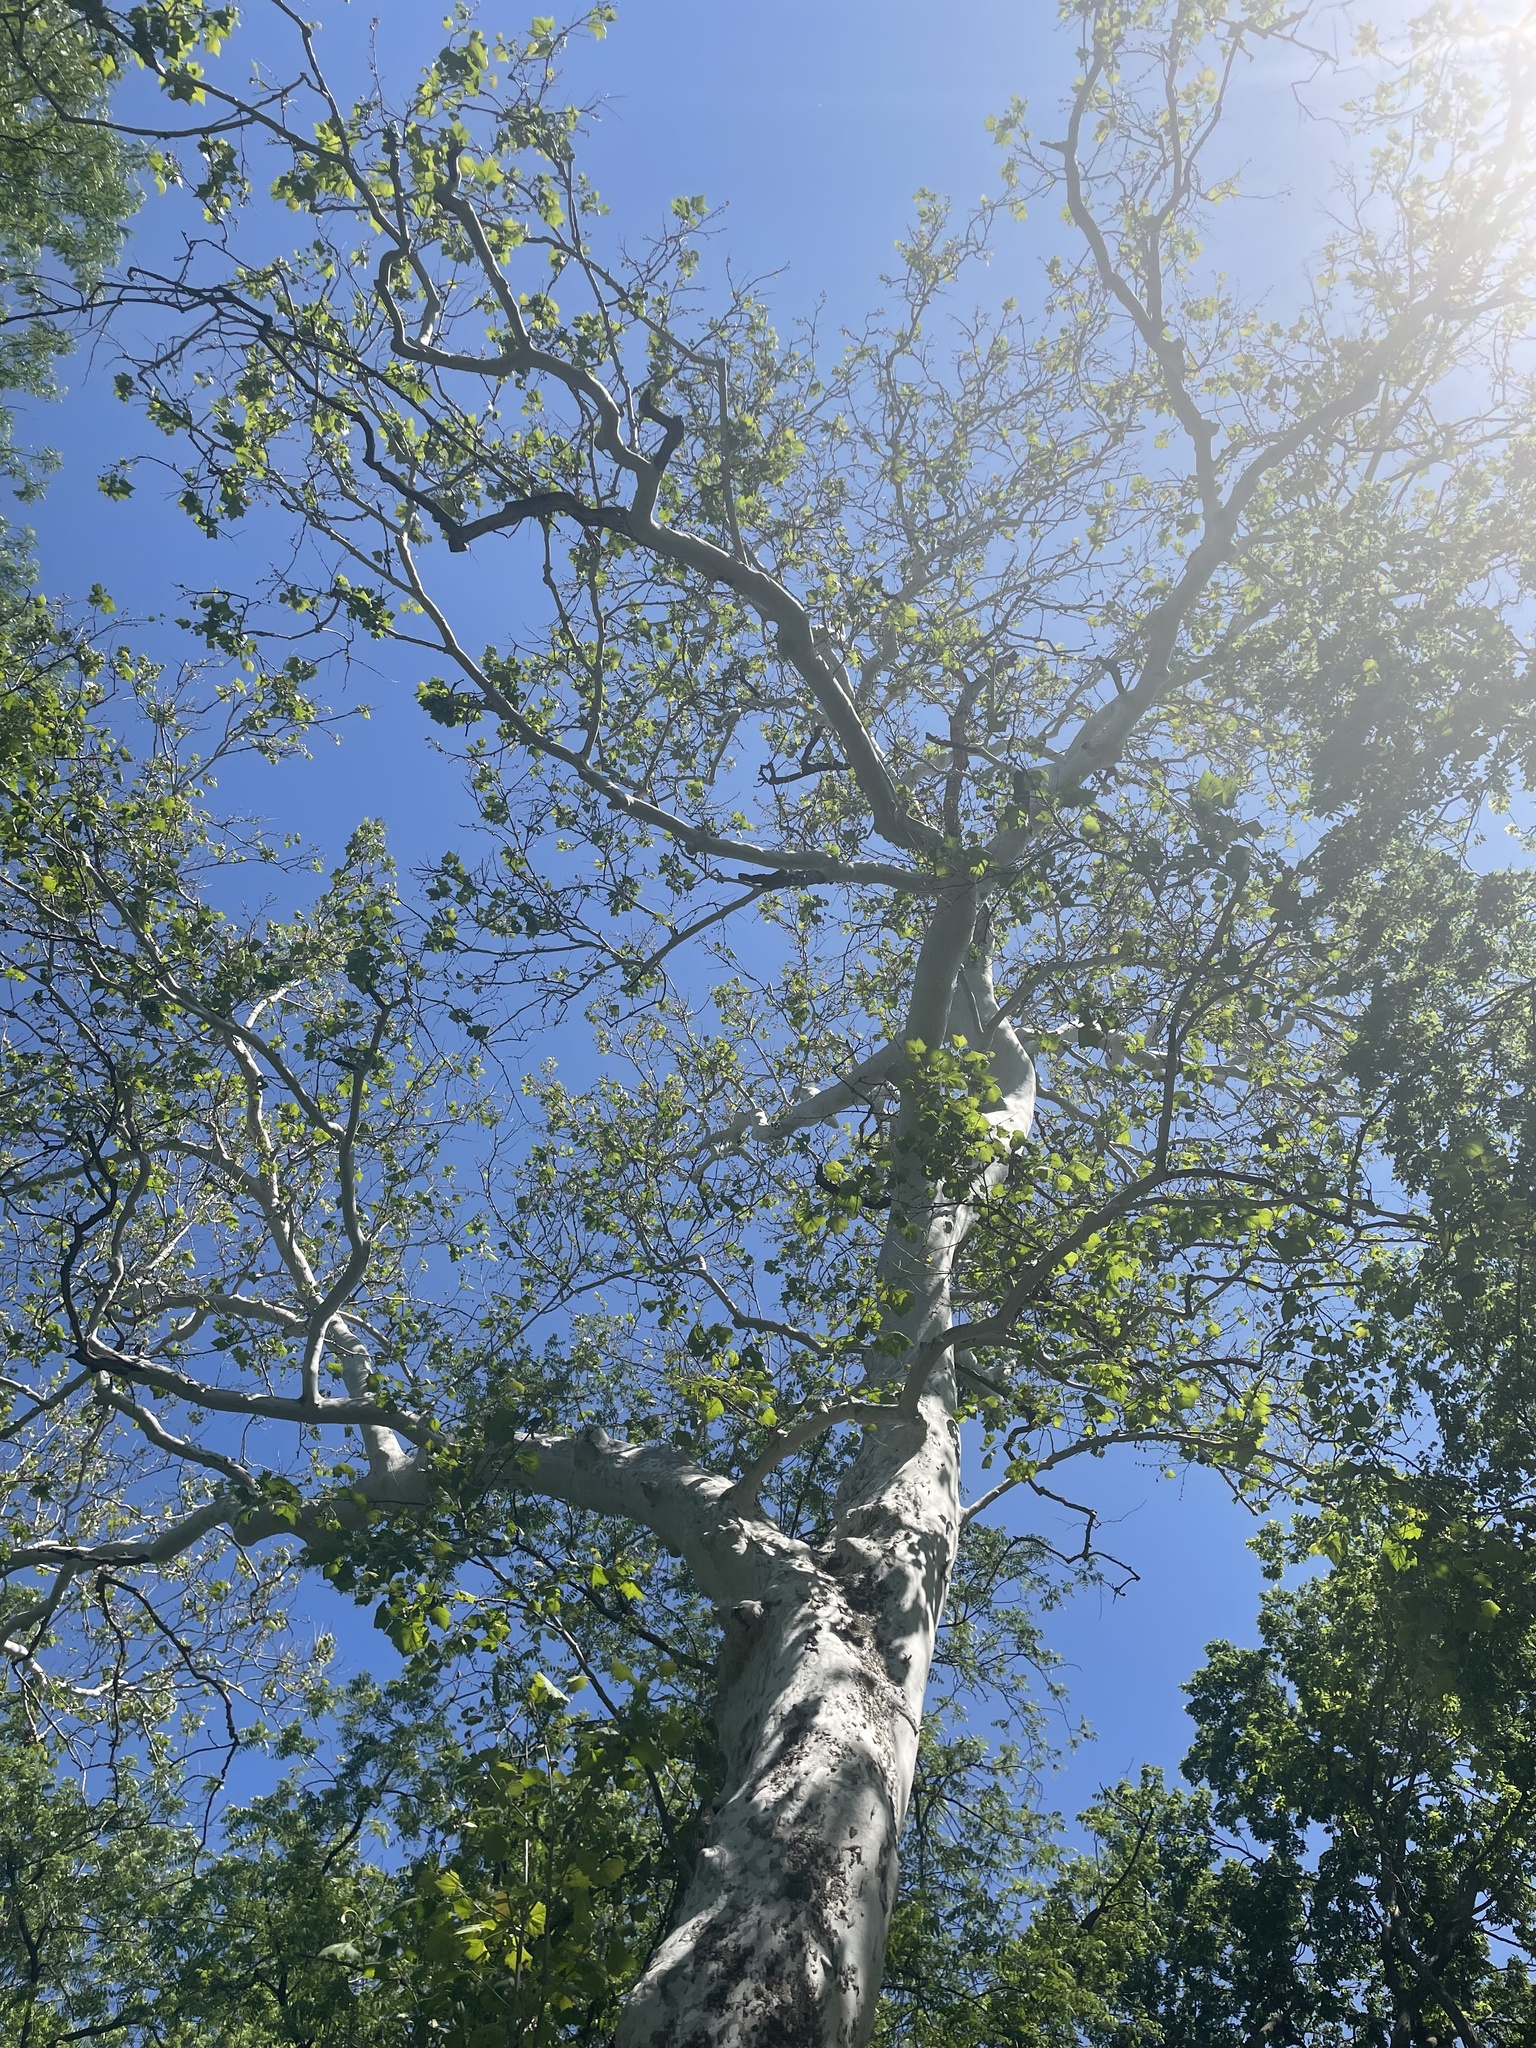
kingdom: Plantae
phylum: Tracheophyta
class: Magnoliopsida
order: Proteales
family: Platanaceae
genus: Platanus
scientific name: Platanus occidentalis
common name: American sycamore
